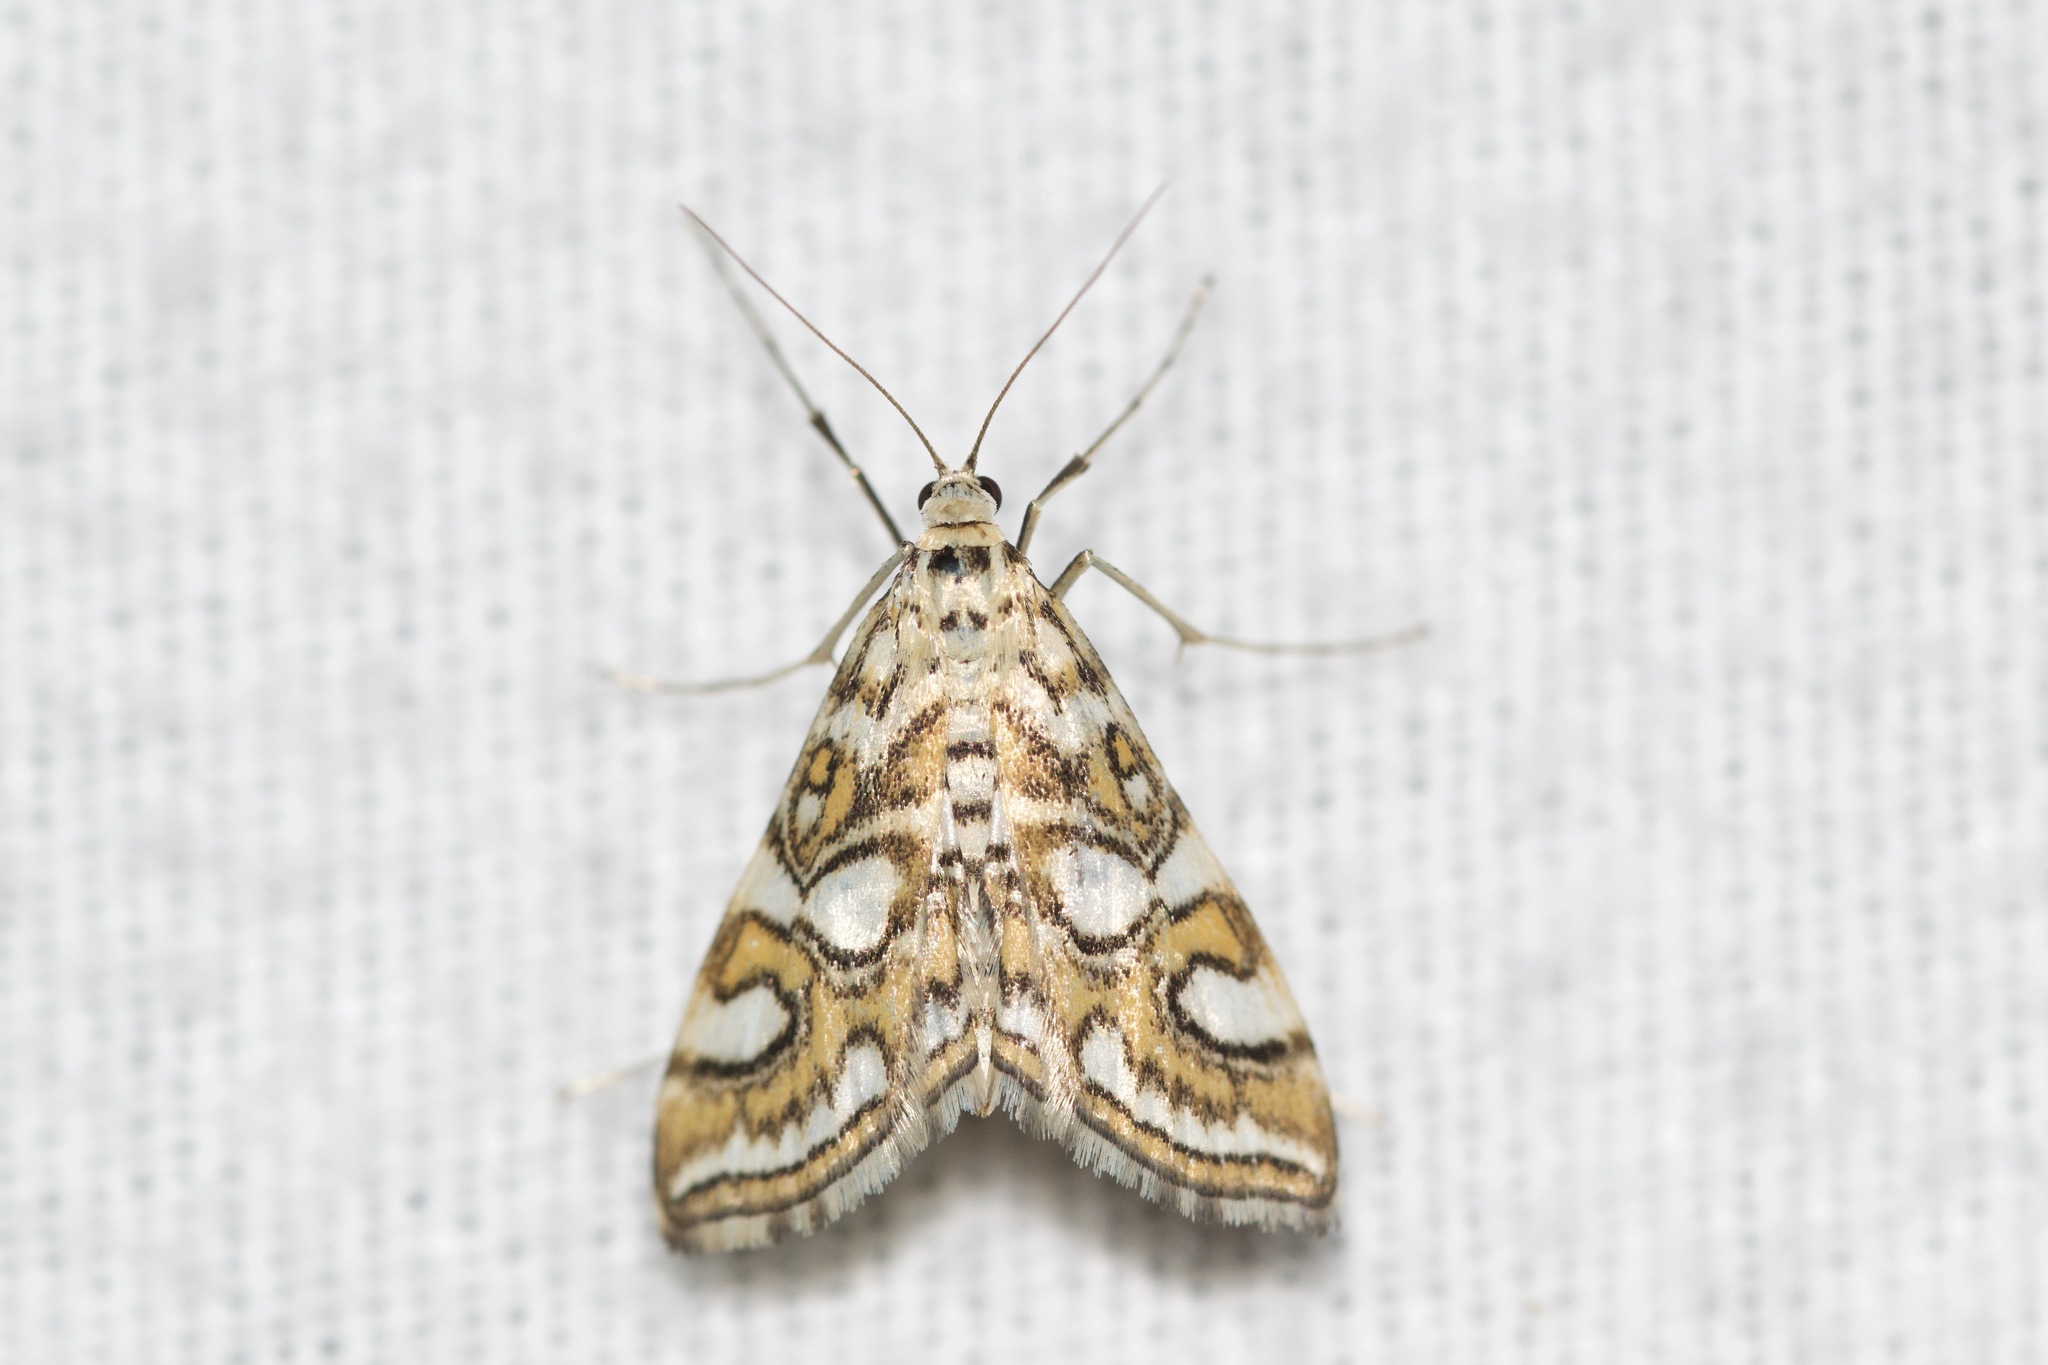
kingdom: Animalia
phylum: Arthropoda
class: Insecta
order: Lepidoptera
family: Crambidae
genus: Elophila
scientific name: Elophila ekthlipsis
